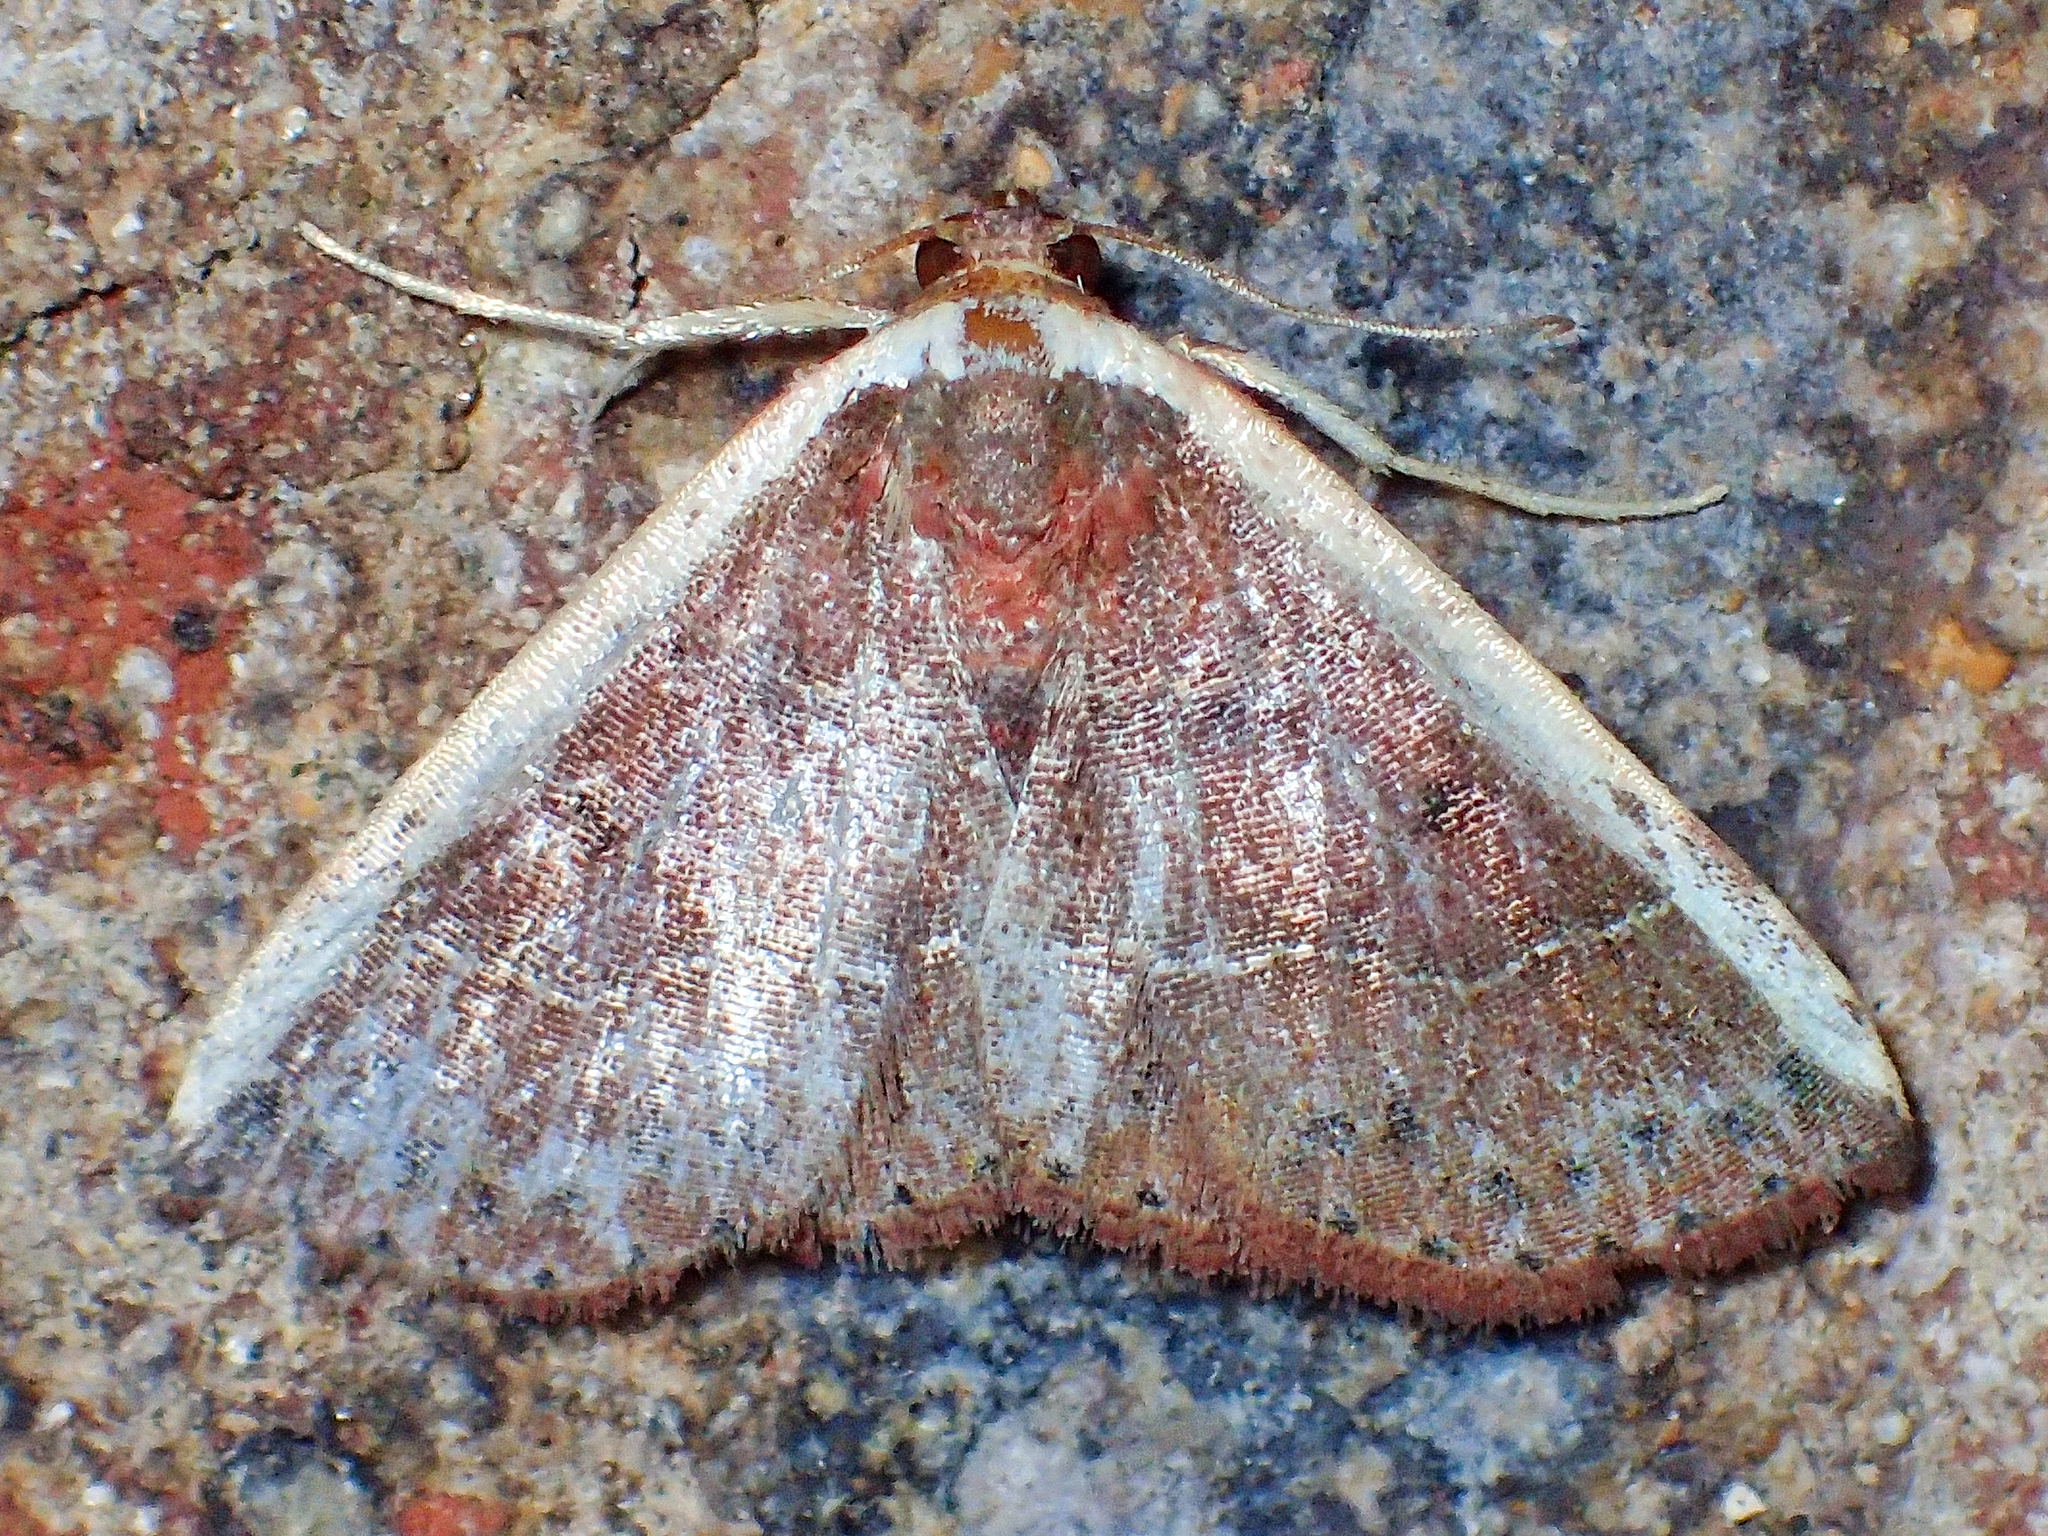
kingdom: Animalia
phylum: Arthropoda
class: Insecta
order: Lepidoptera
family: Noctuidae
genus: Ozarba
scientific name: Ozarba albocostaliata
